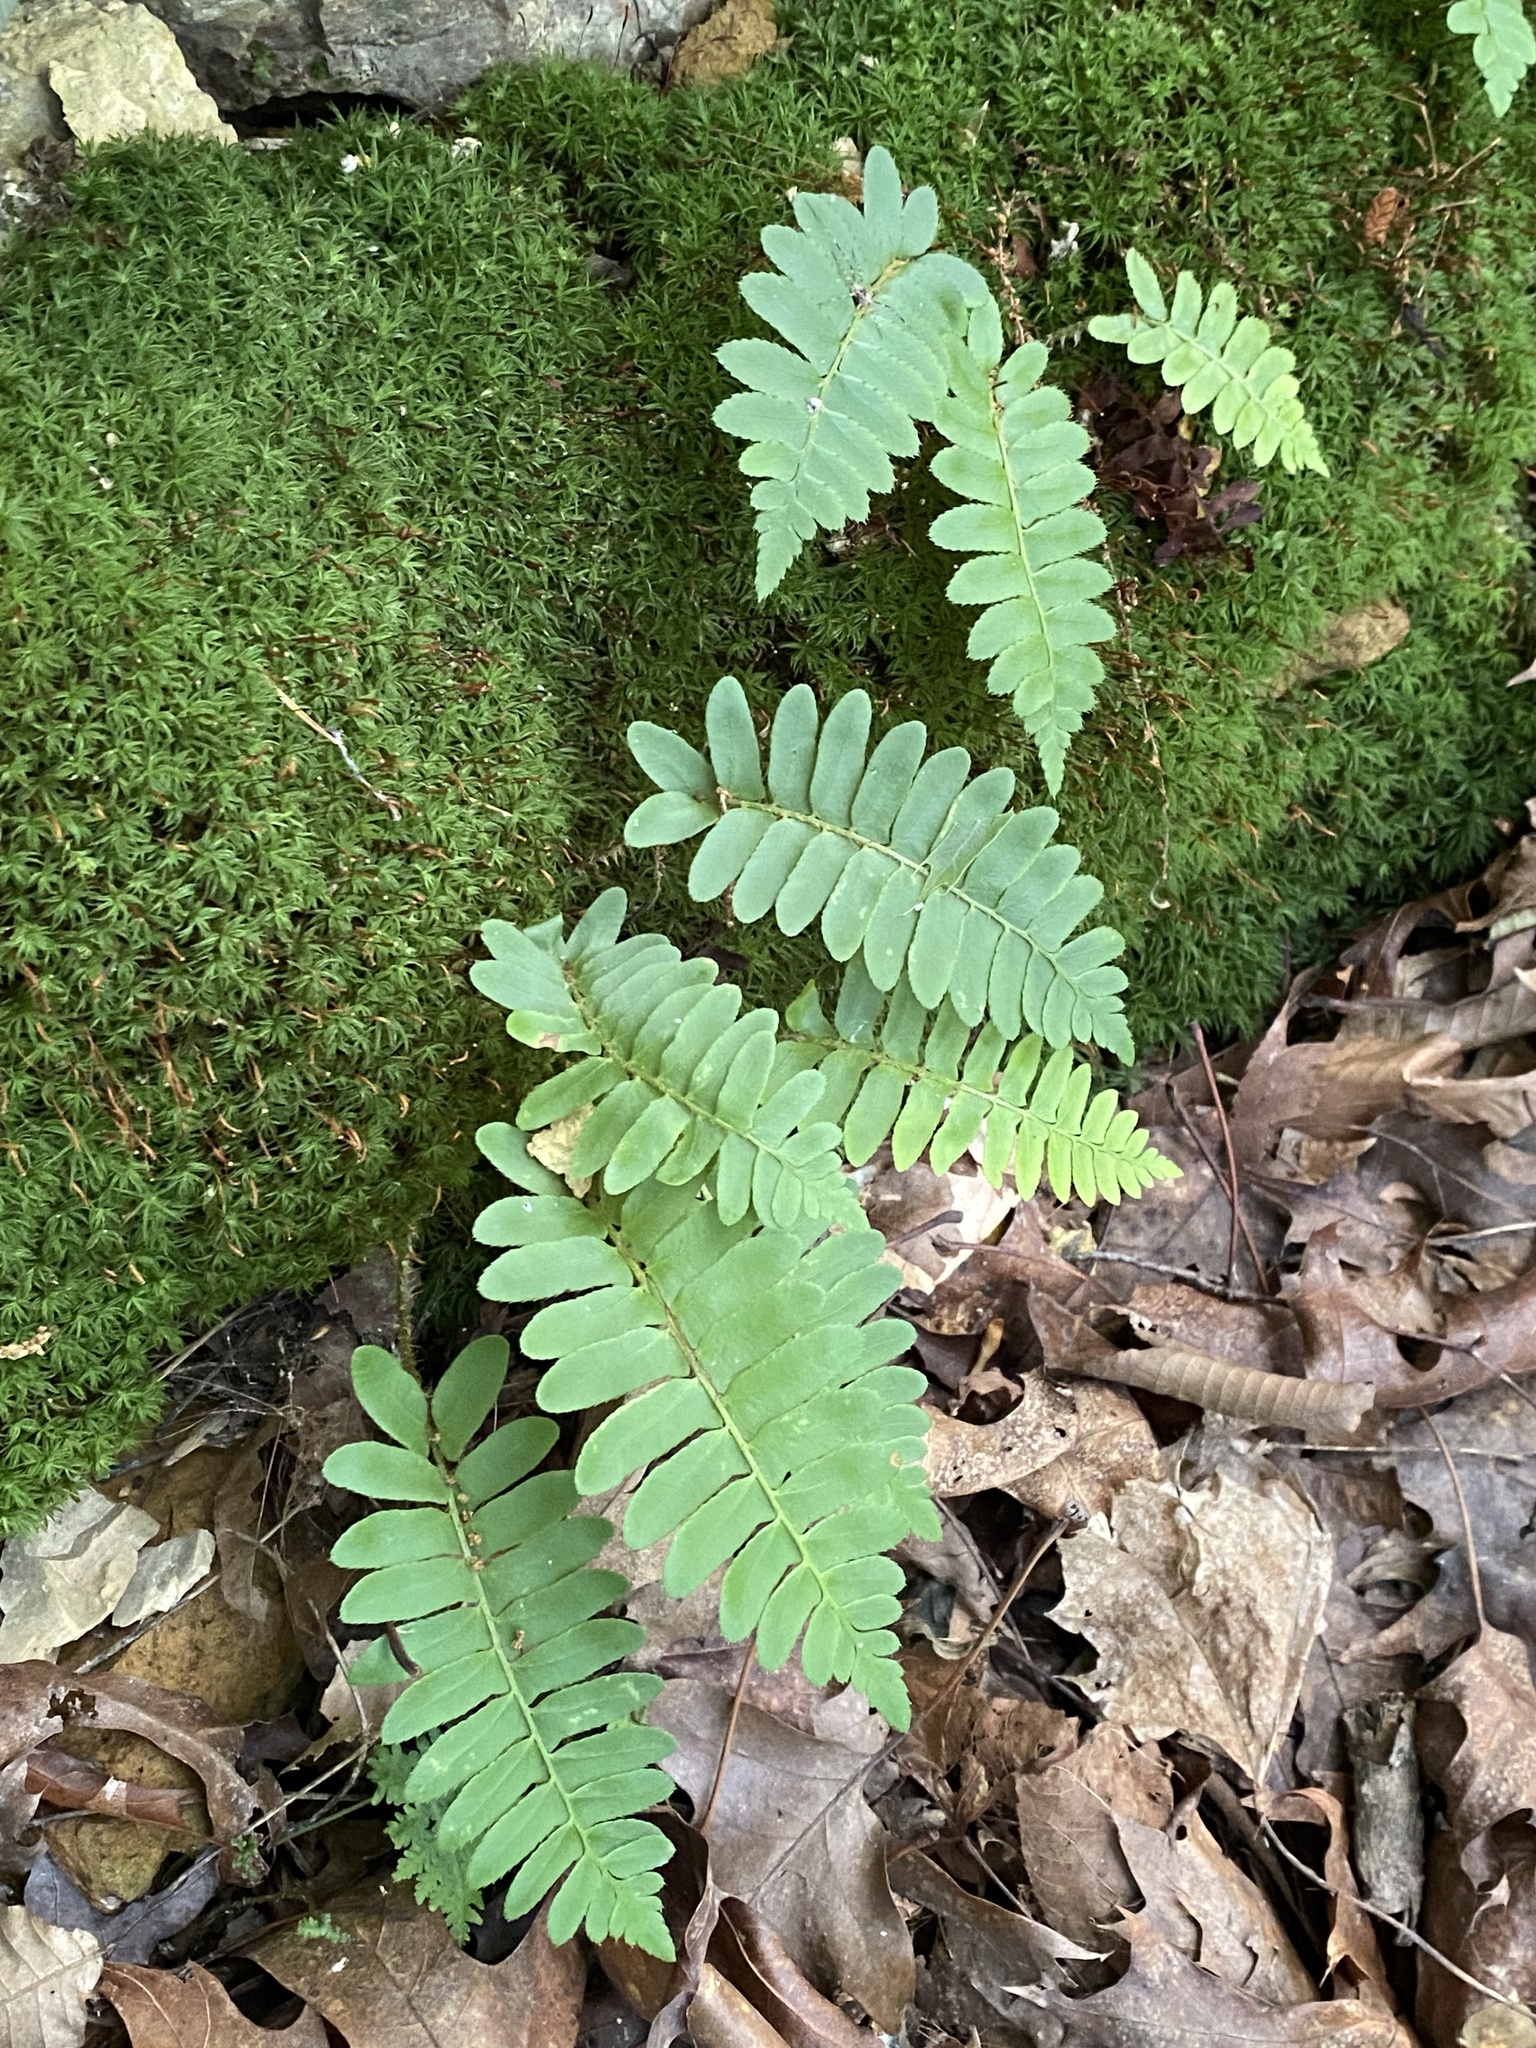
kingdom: Plantae
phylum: Tracheophyta
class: Polypodiopsida
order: Polypodiales
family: Dryopteridaceae
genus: Polystichum
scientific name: Polystichum acrostichoides
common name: Christmas fern
